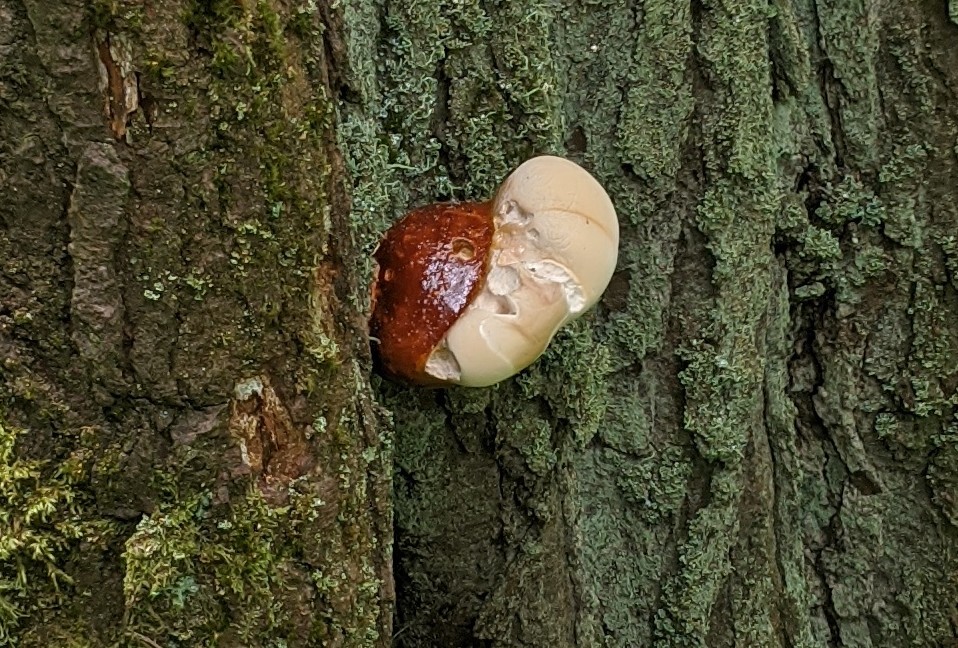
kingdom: Fungi
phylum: Basidiomycota
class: Agaricomycetes
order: Polyporales
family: Polyporaceae
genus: Ganoderma
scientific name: Ganoderma oregonense
